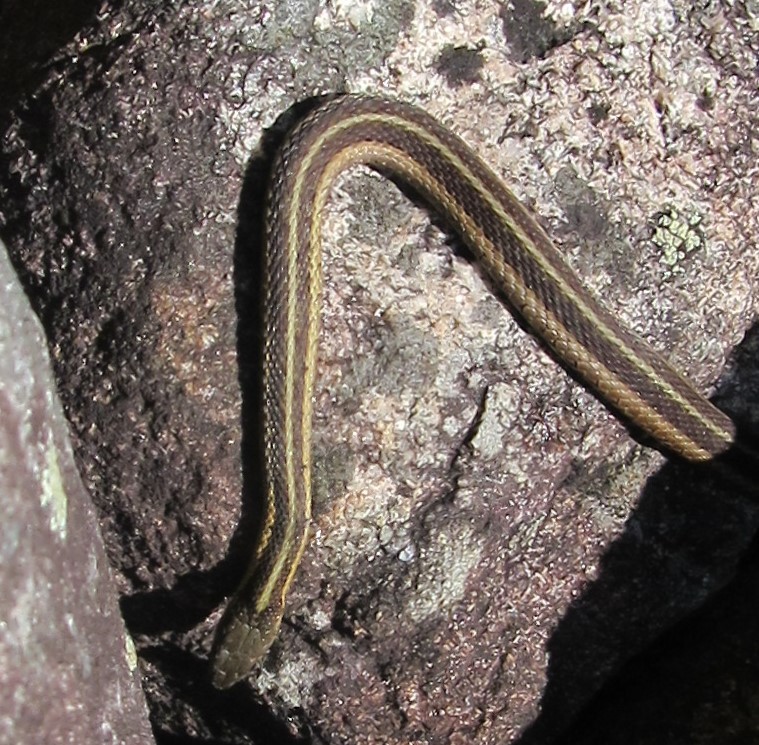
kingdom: Animalia
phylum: Chordata
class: Squamata
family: Colubridae
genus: Thamnophis
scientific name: Thamnophis sirtalis
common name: Common garter snake
